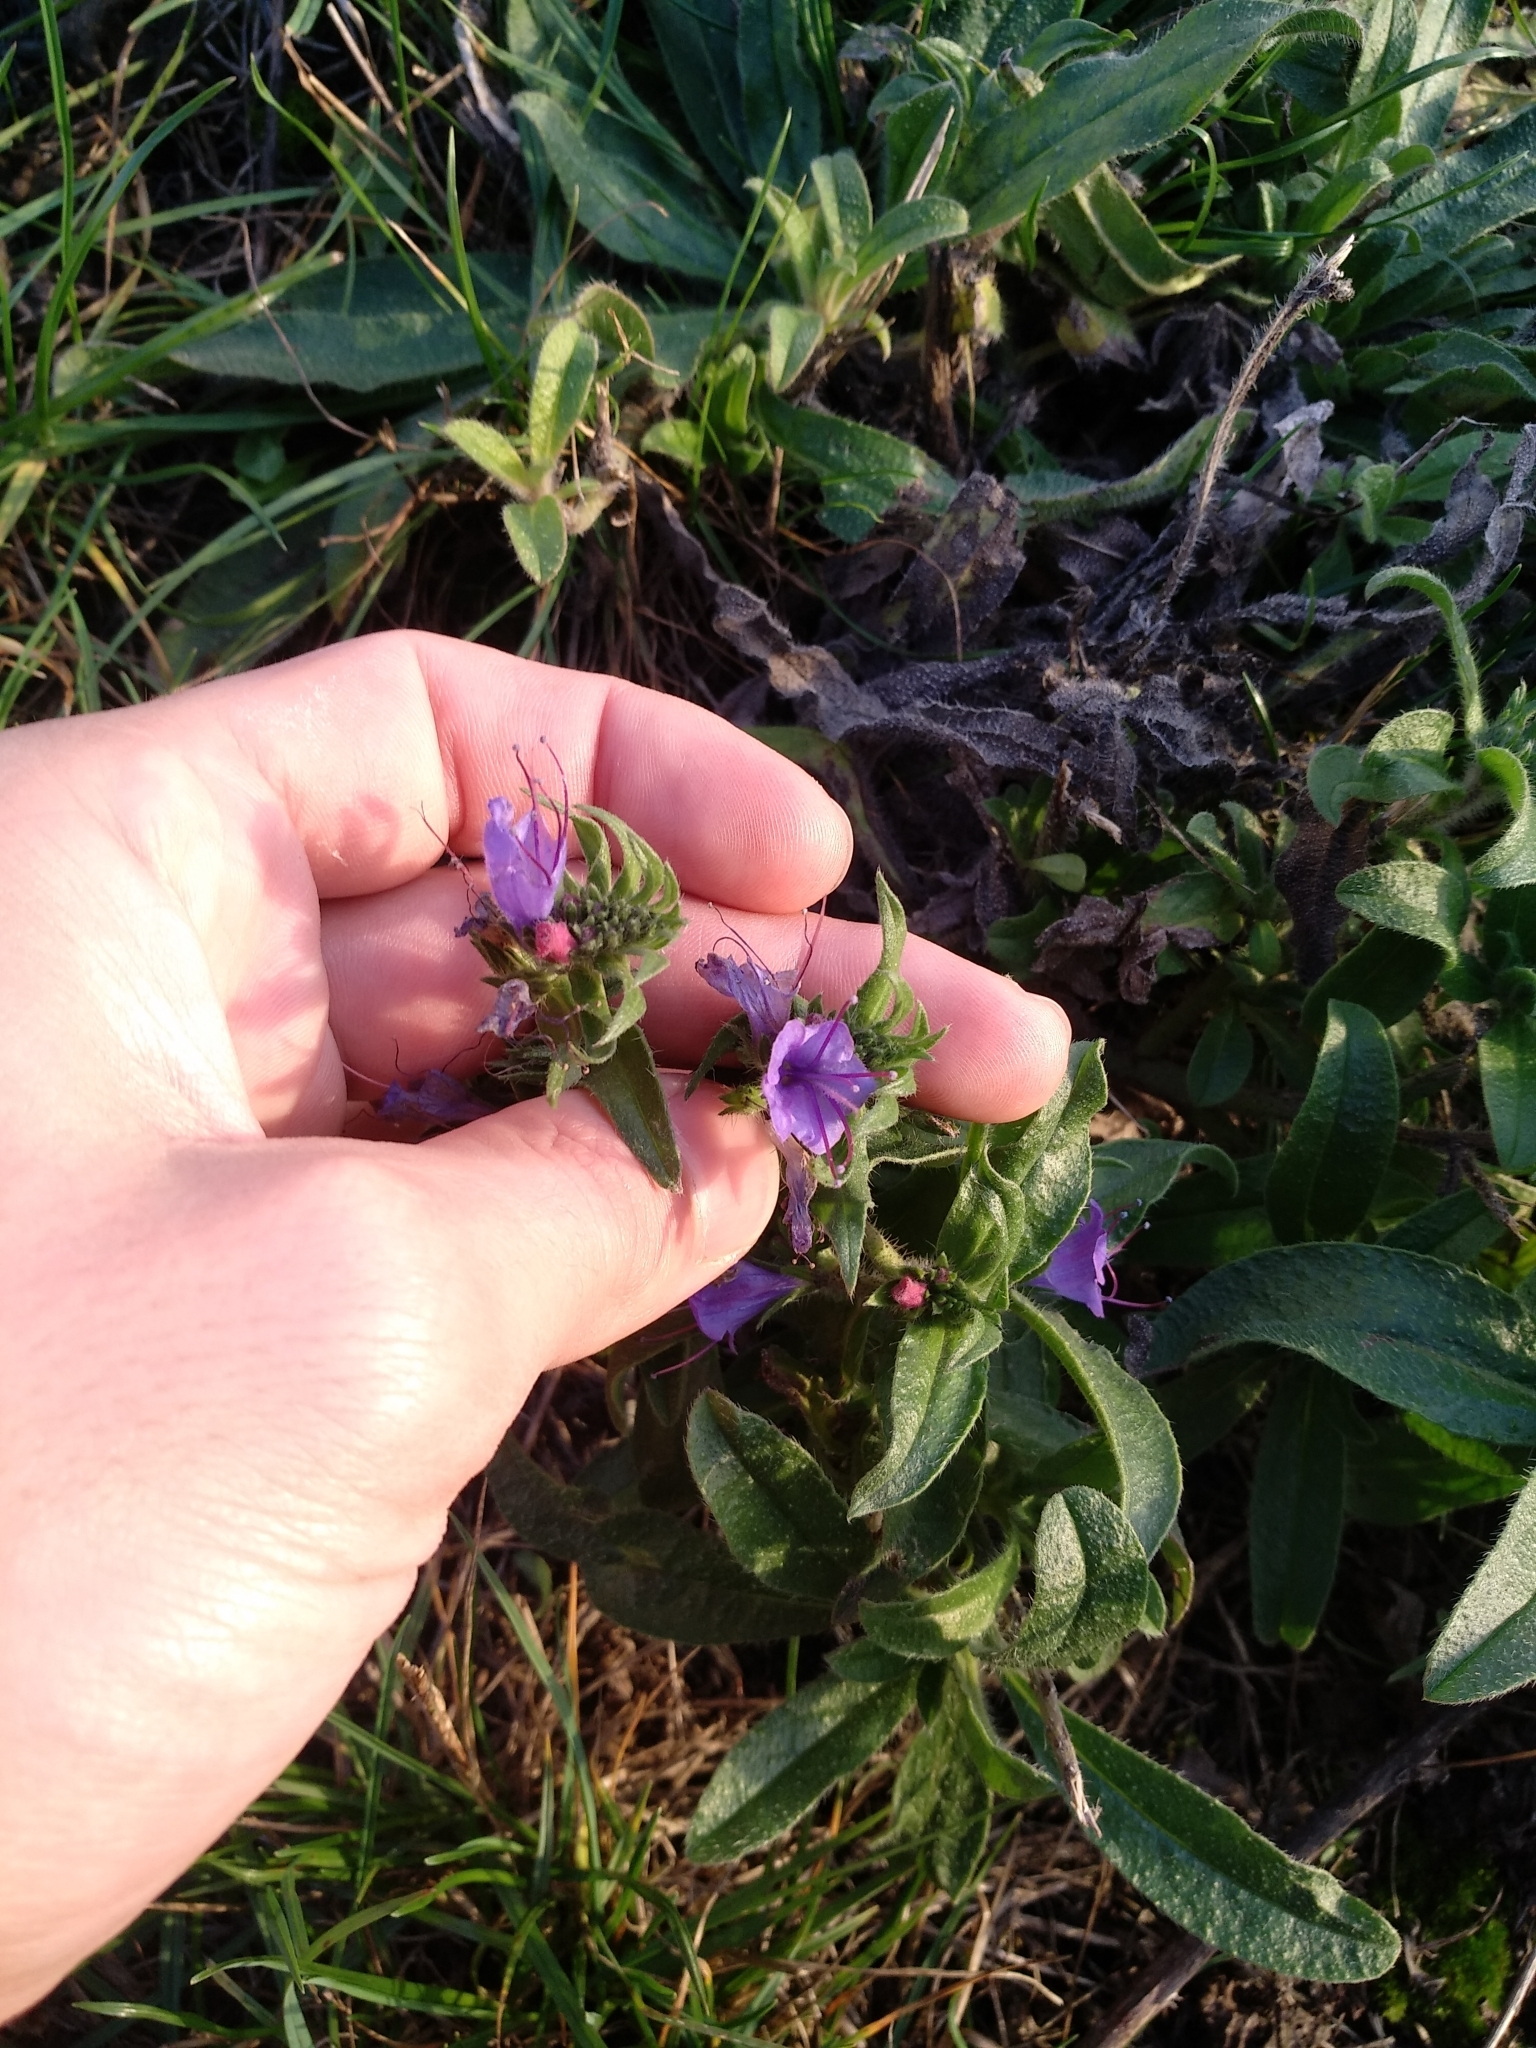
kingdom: Plantae
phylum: Tracheophyta
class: Magnoliopsida
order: Boraginales
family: Boraginaceae
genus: Echium
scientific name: Echium vulgare
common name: Common viper's bugloss
